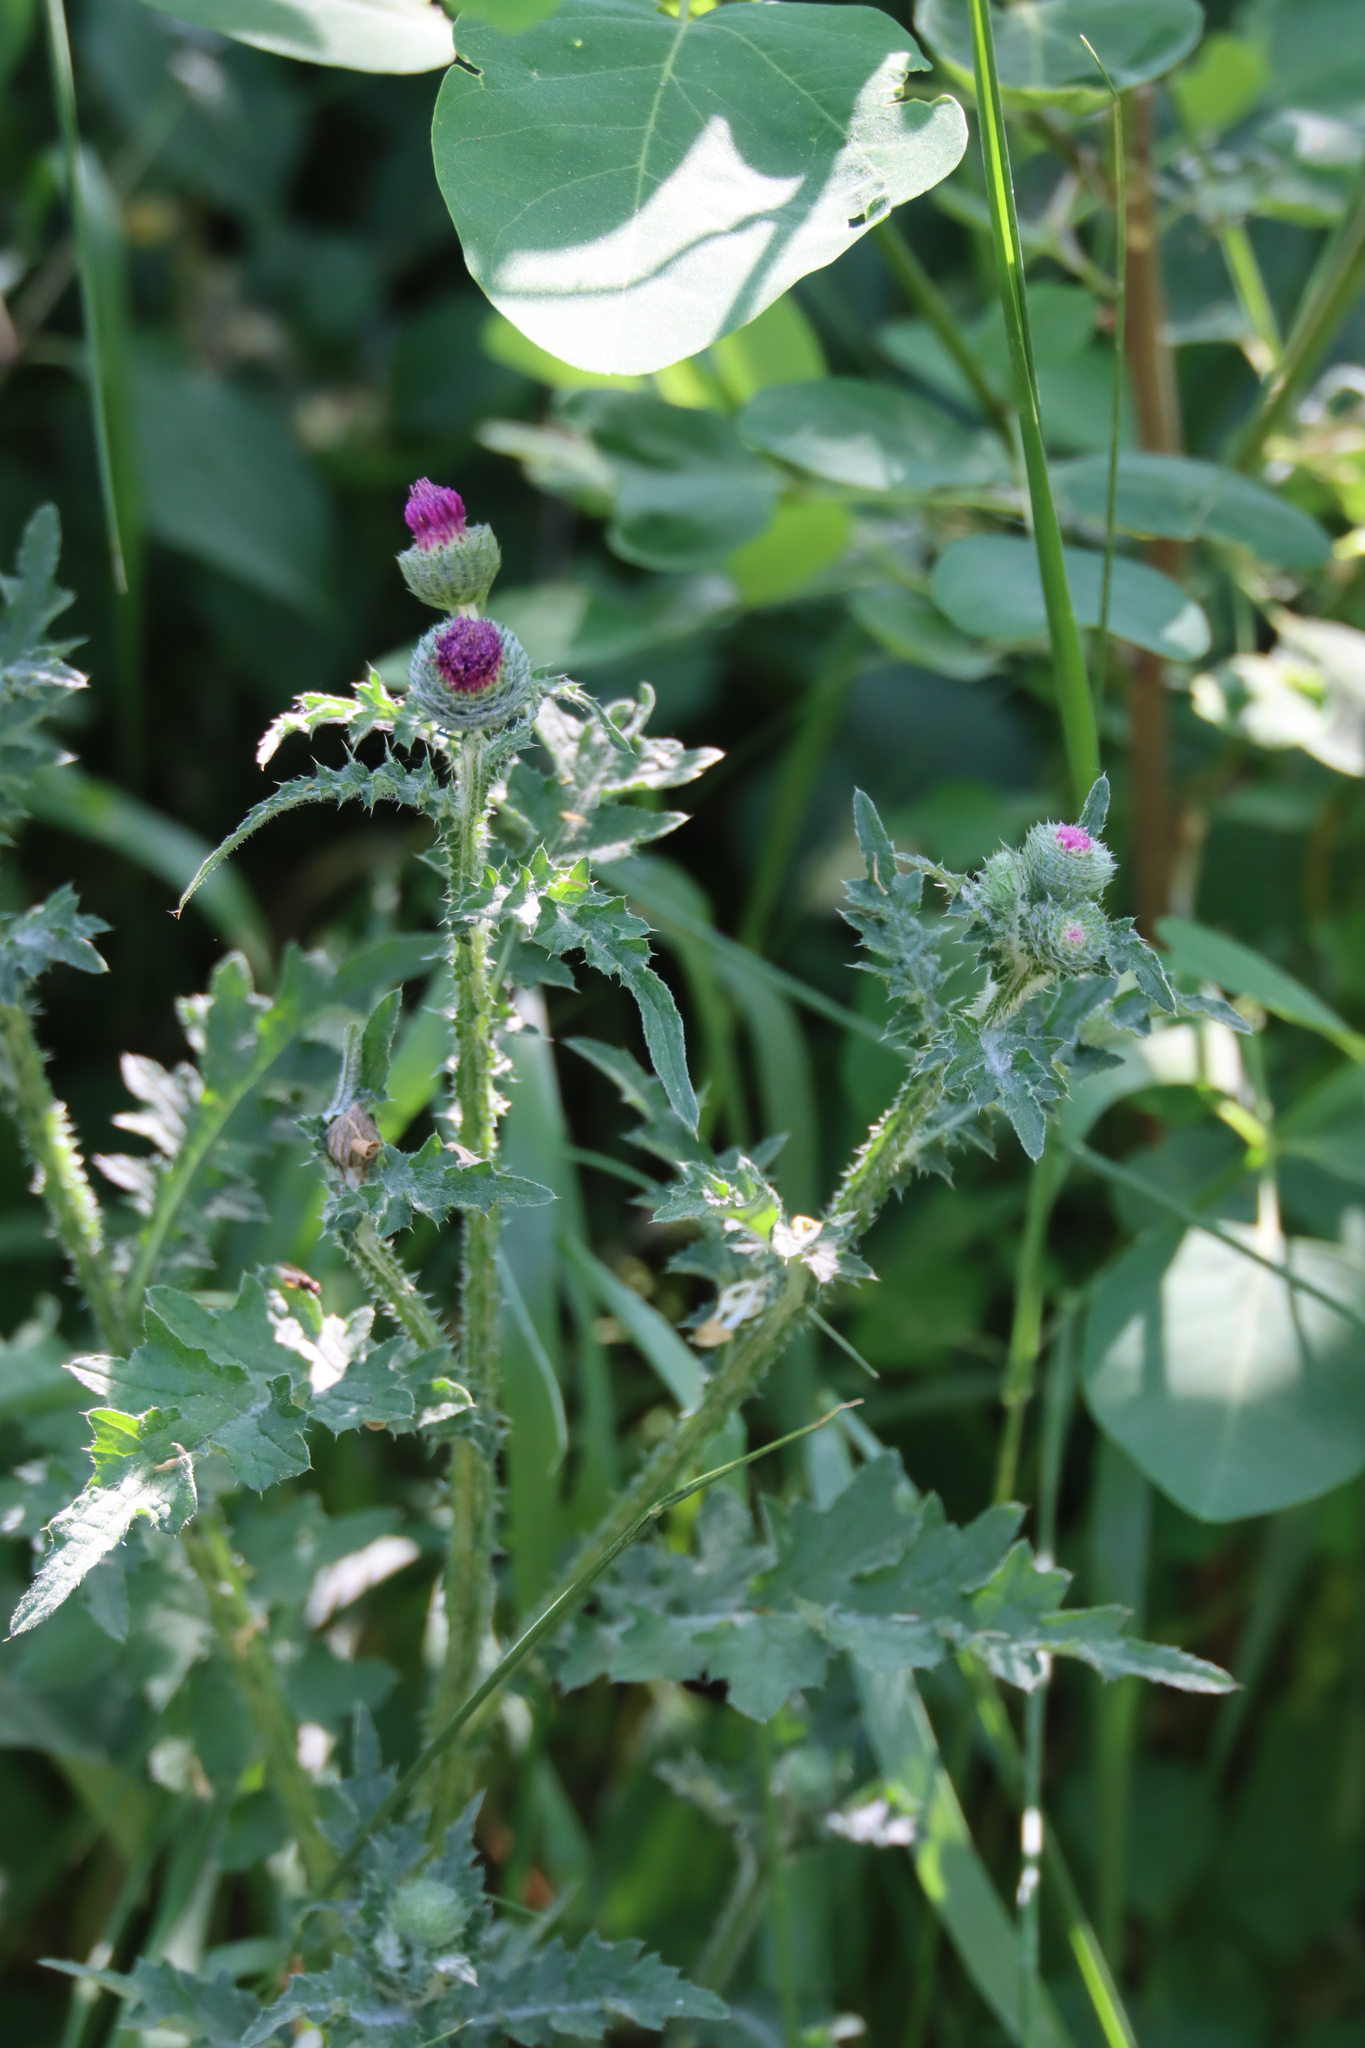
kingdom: Plantae
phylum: Tracheophyta
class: Magnoliopsida
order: Asterales
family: Asteraceae
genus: Carduus
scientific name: Carduus crispus
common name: Welted thistle
